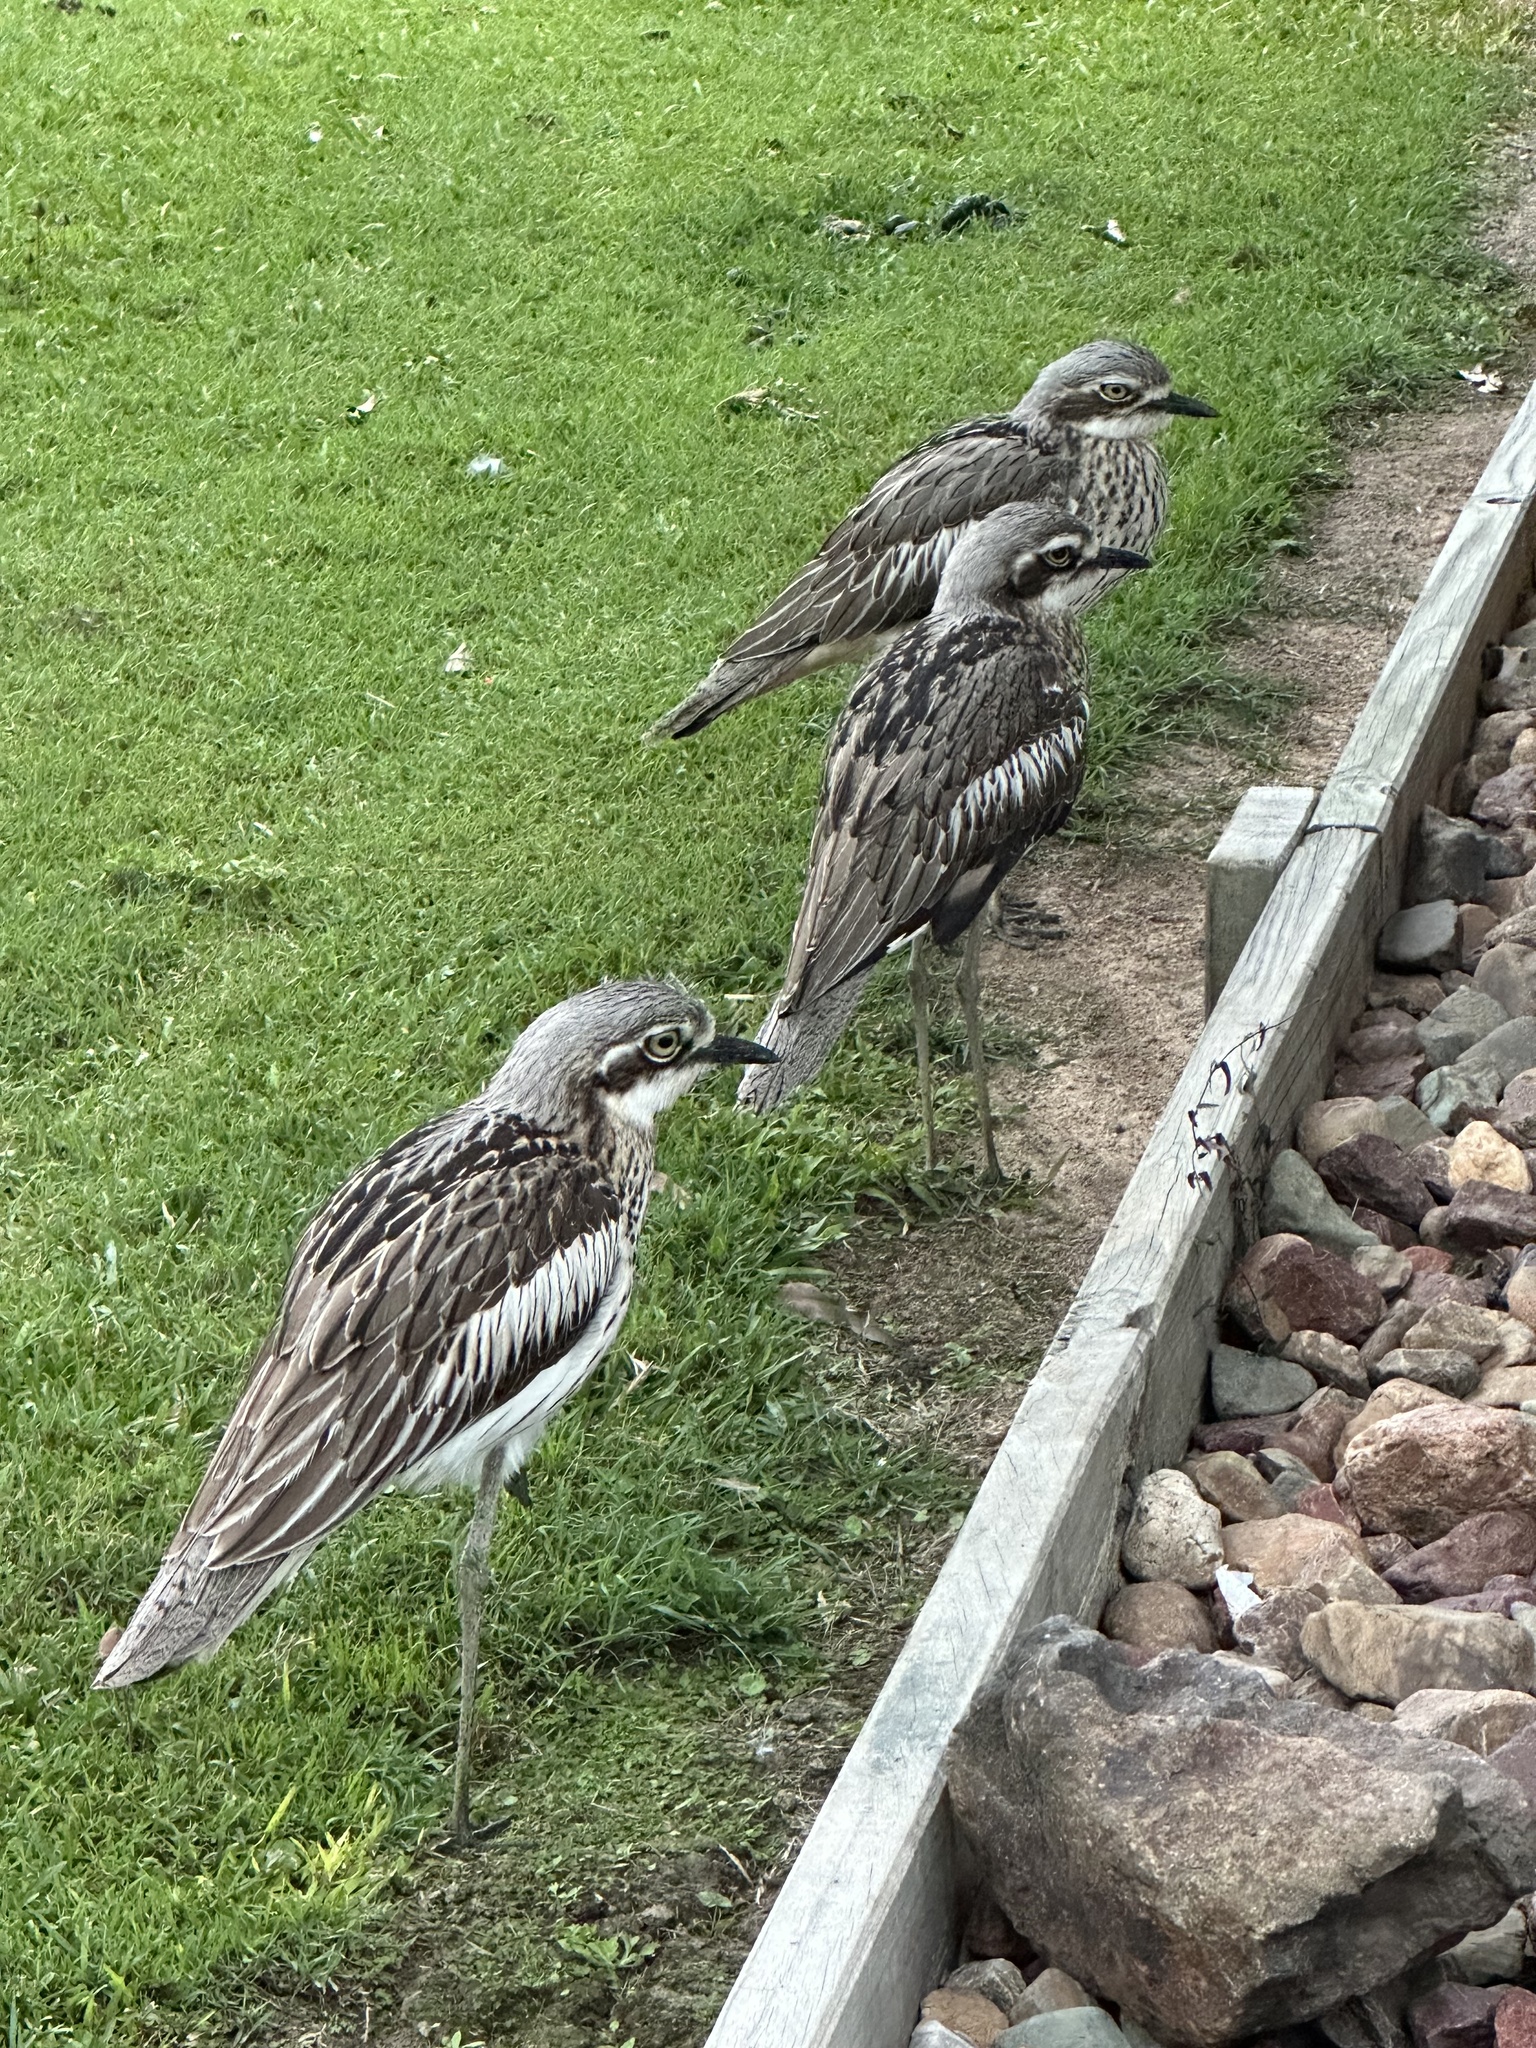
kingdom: Animalia
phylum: Chordata
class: Aves
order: Charadriiformes
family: Burhinidae
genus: Burhinus
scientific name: Burhinus grallarius
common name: Bush stone-curlew
